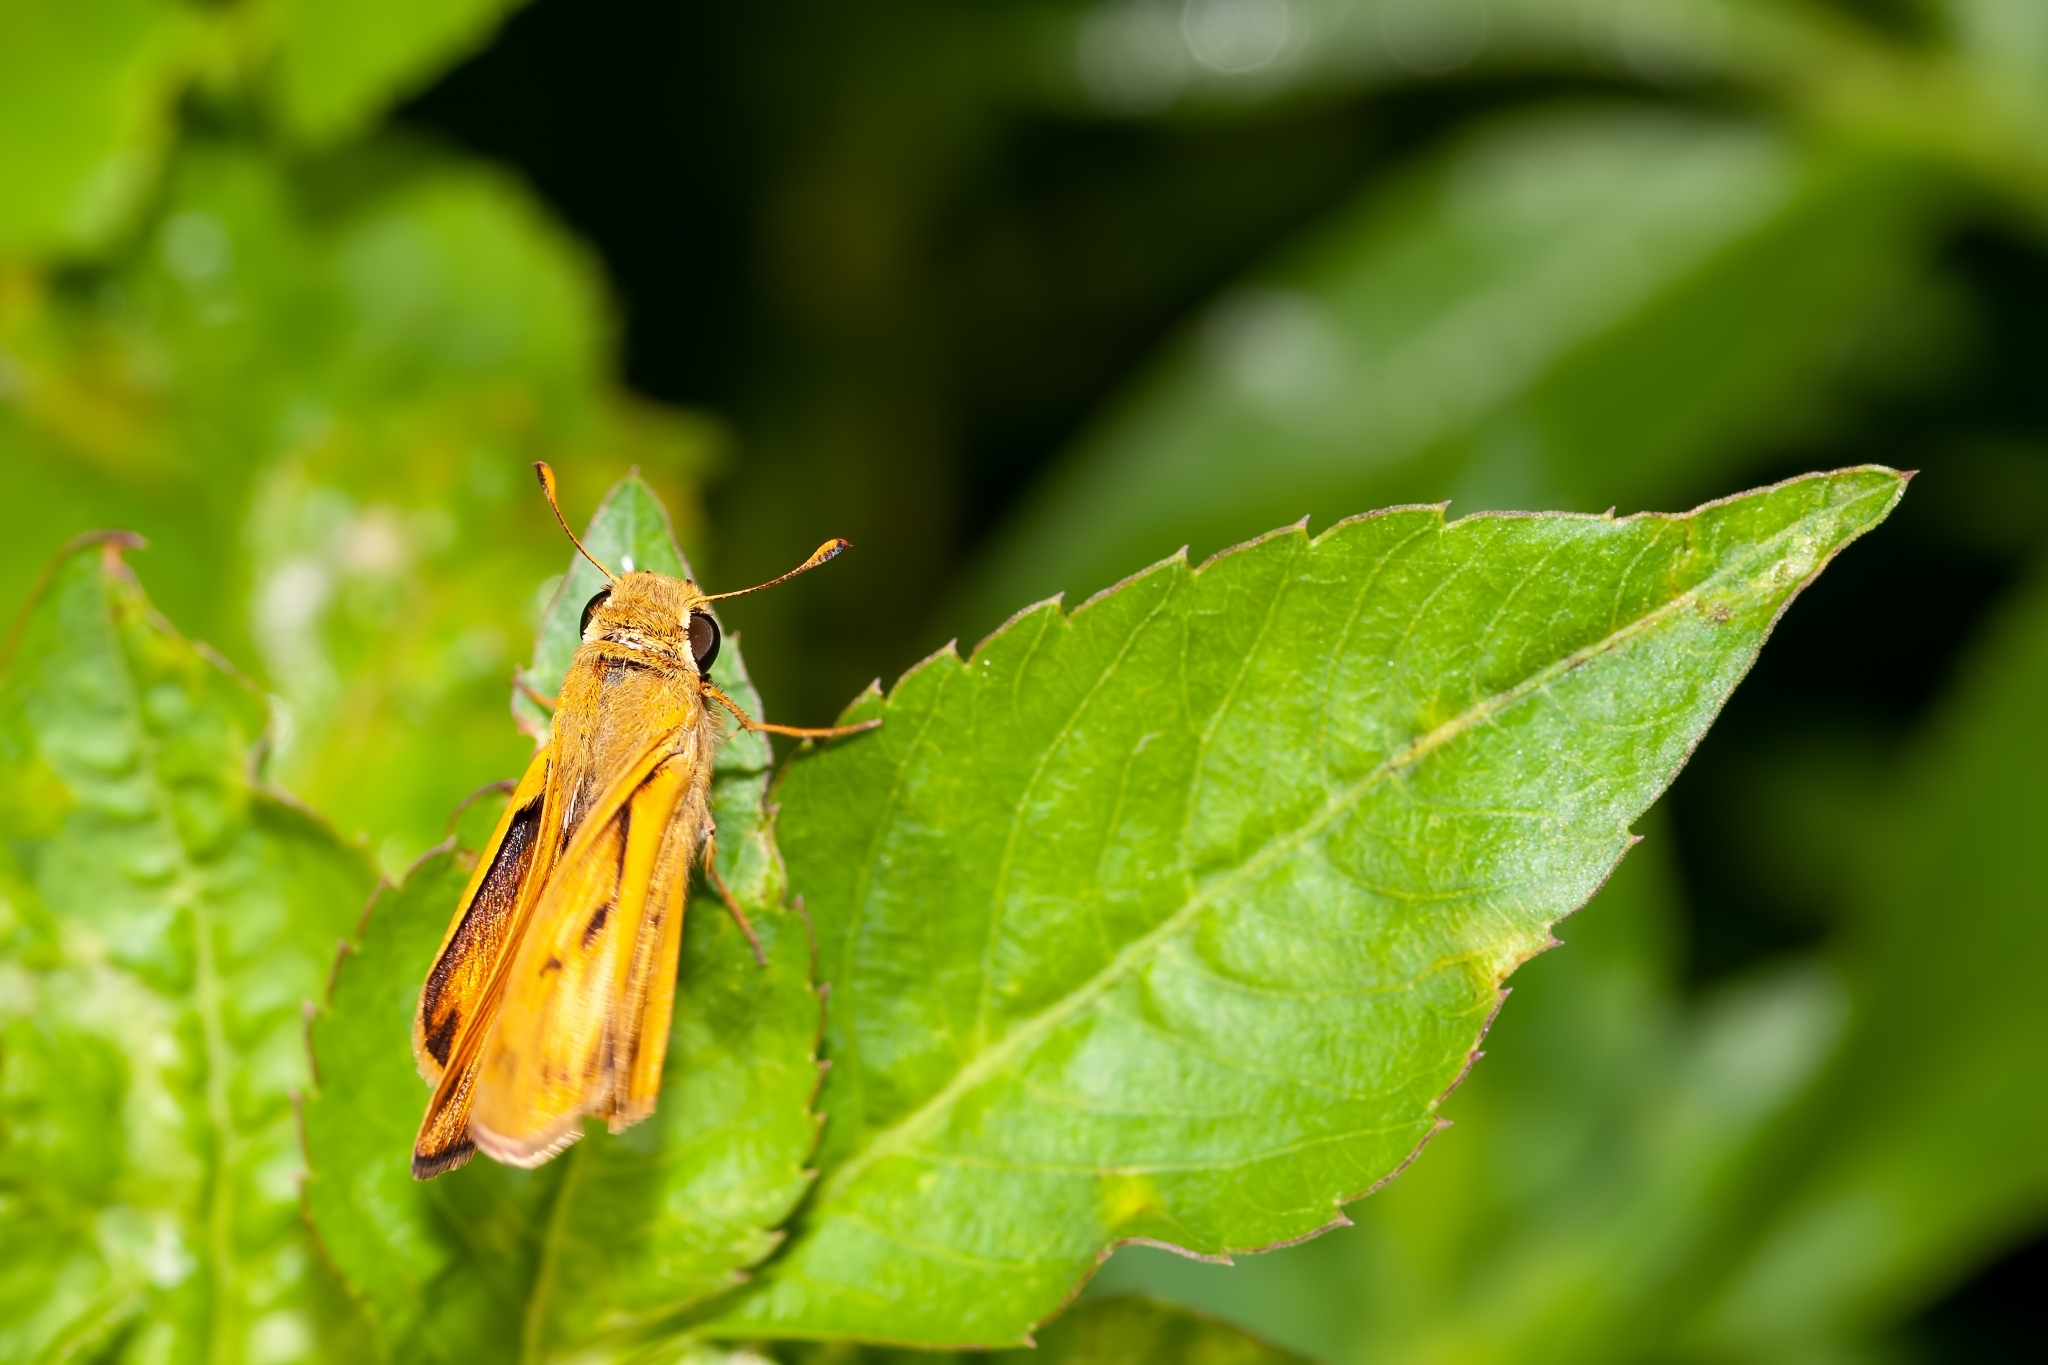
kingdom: Animalia
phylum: Arthropoda
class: Insecta
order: Lepidoptera
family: Hesperiidae
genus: Hylephila
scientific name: Hylephila phyleus
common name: Fiery skipper
